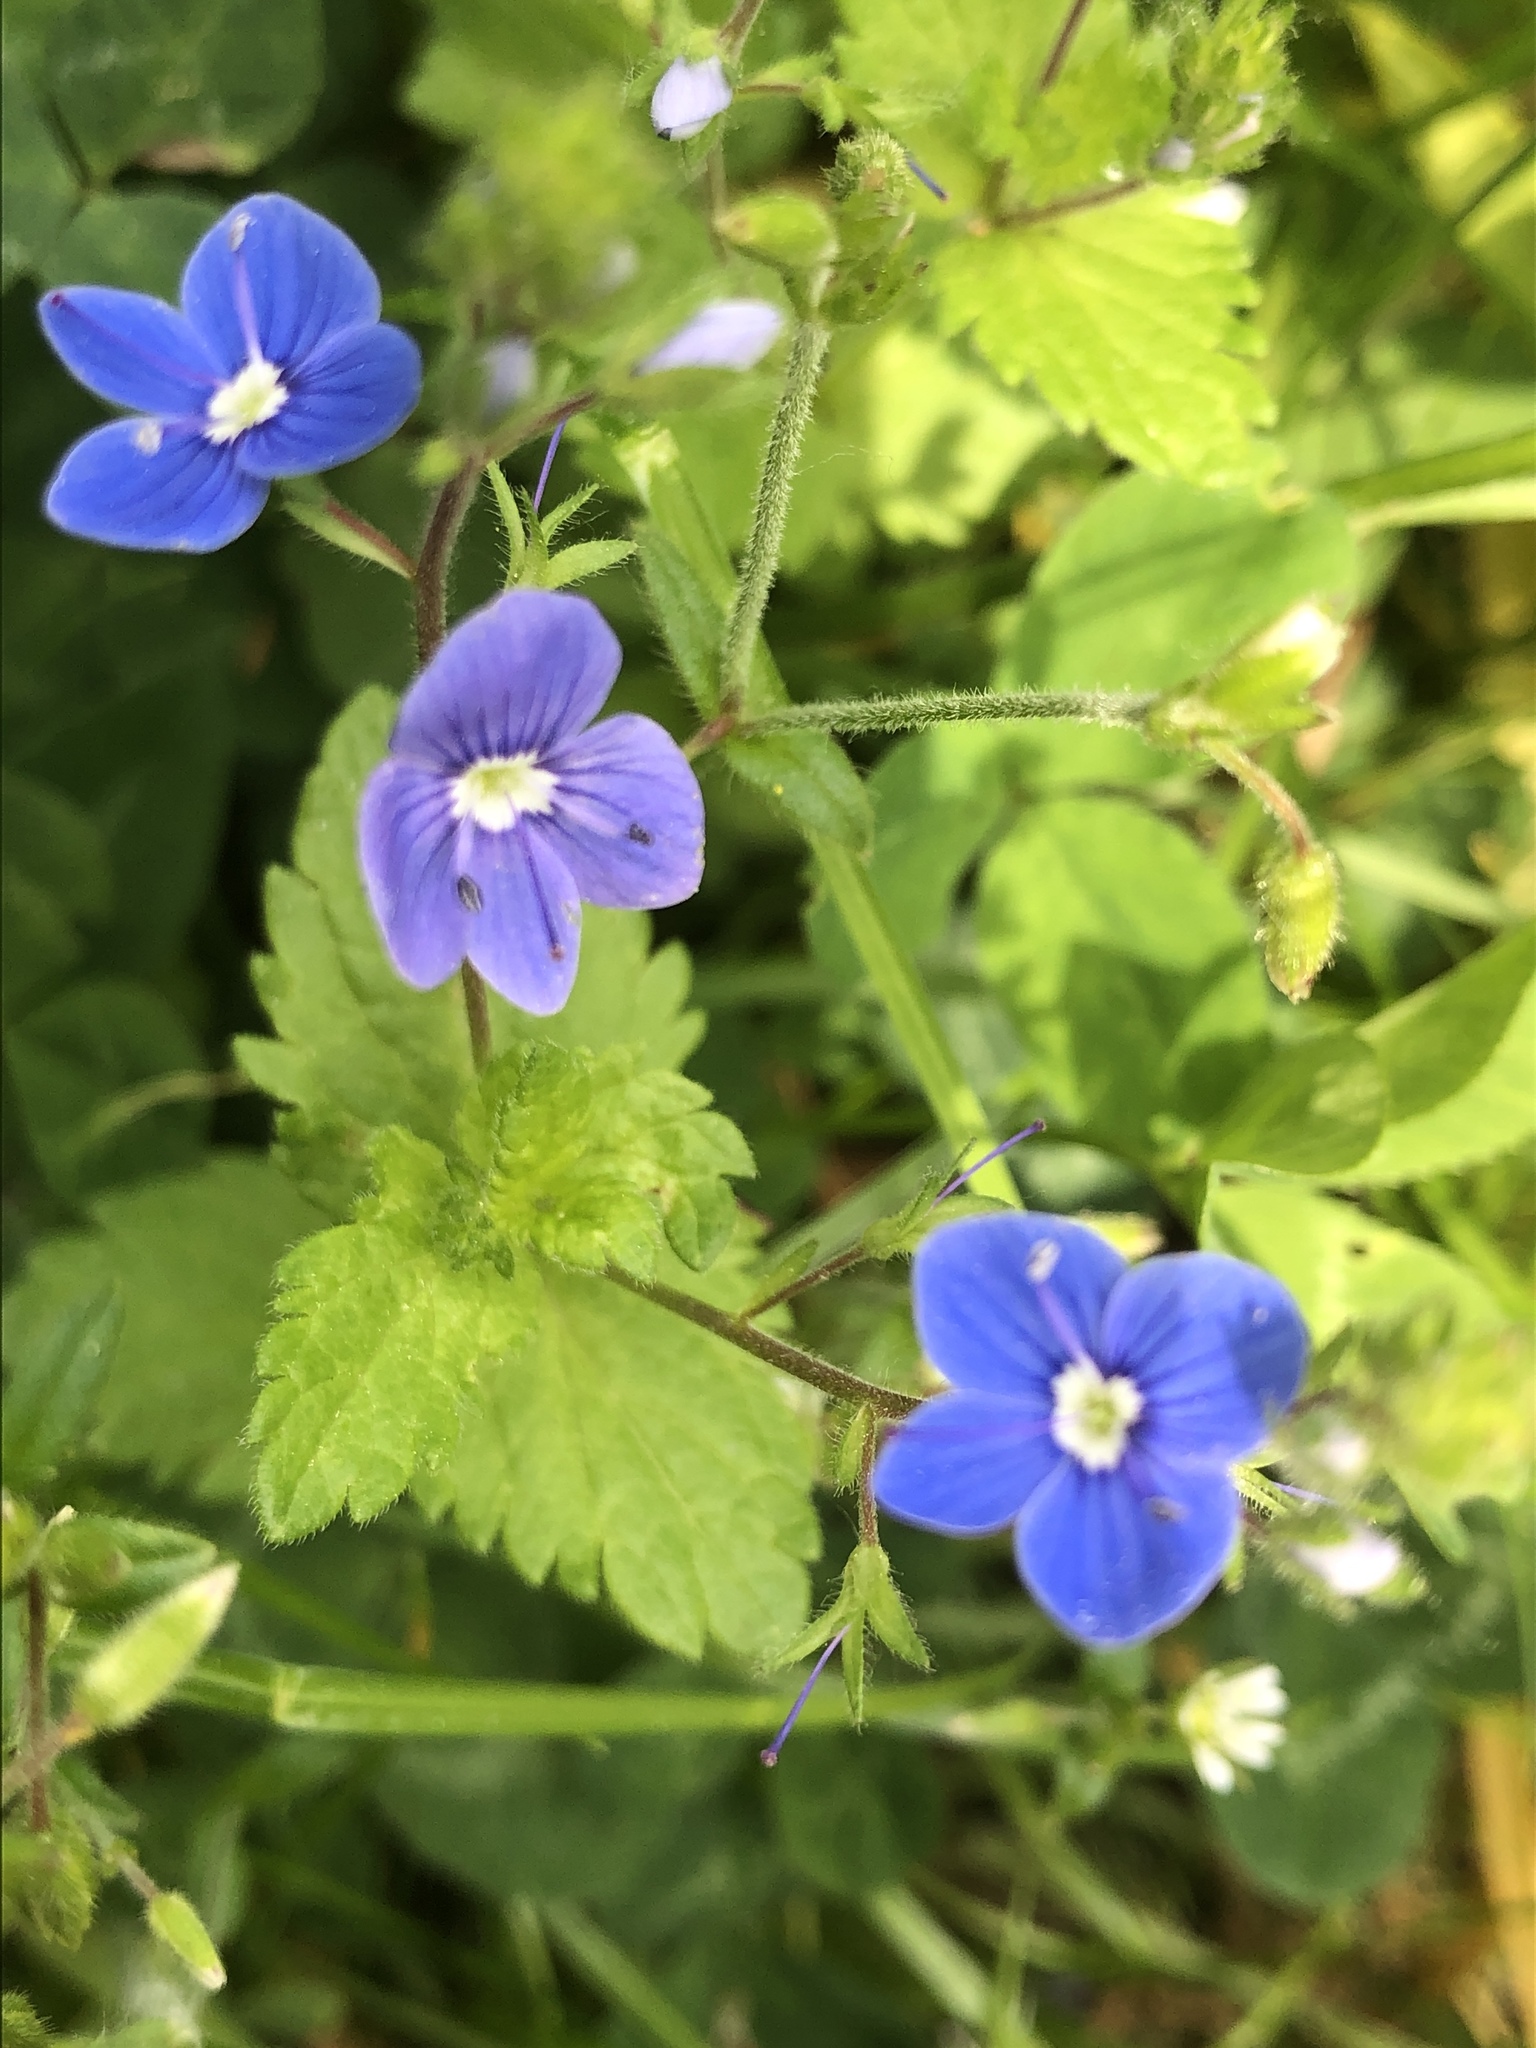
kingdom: Plantae
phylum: Tracheophyta
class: Magnoliopsida
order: Lamiales
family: Plantaginaceae
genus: Veronica
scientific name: Veronica chamaedrys
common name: Germander speedwell
